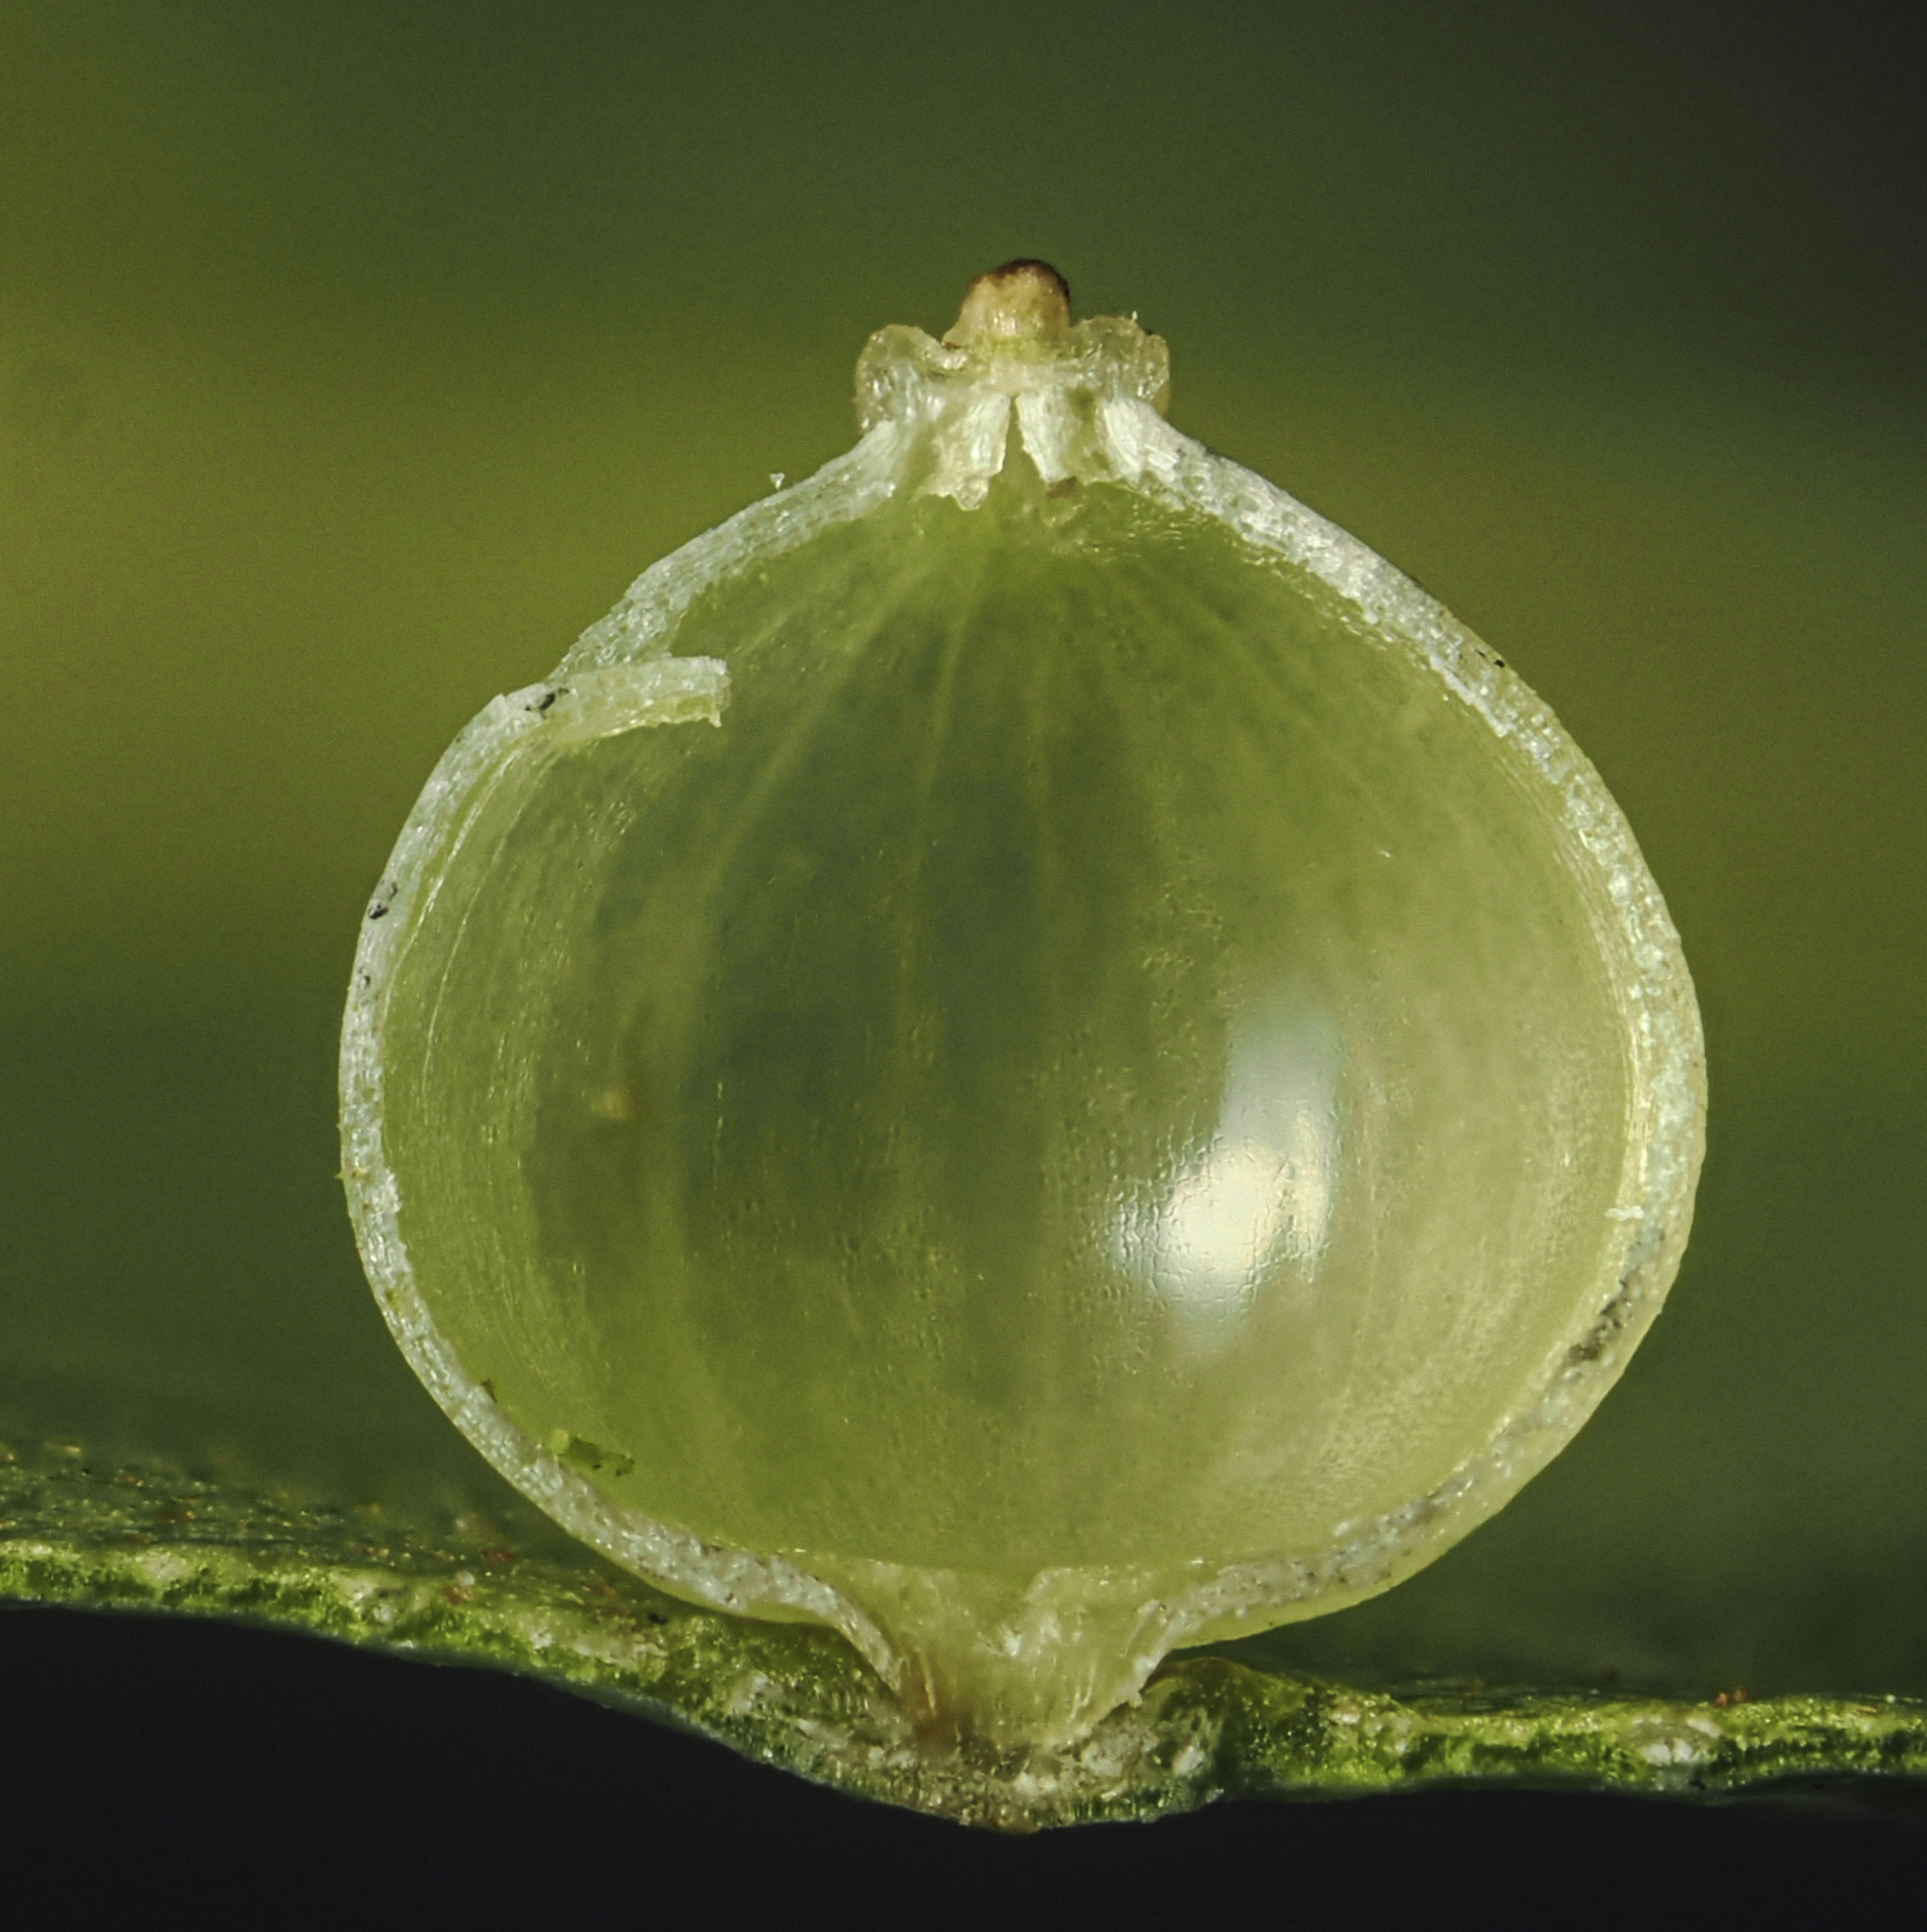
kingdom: Animalia
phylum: Arthropoda
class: Insecta
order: Diptera
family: Cecidomyiidae
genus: Caryomyia
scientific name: Caryomyia leviglobus
